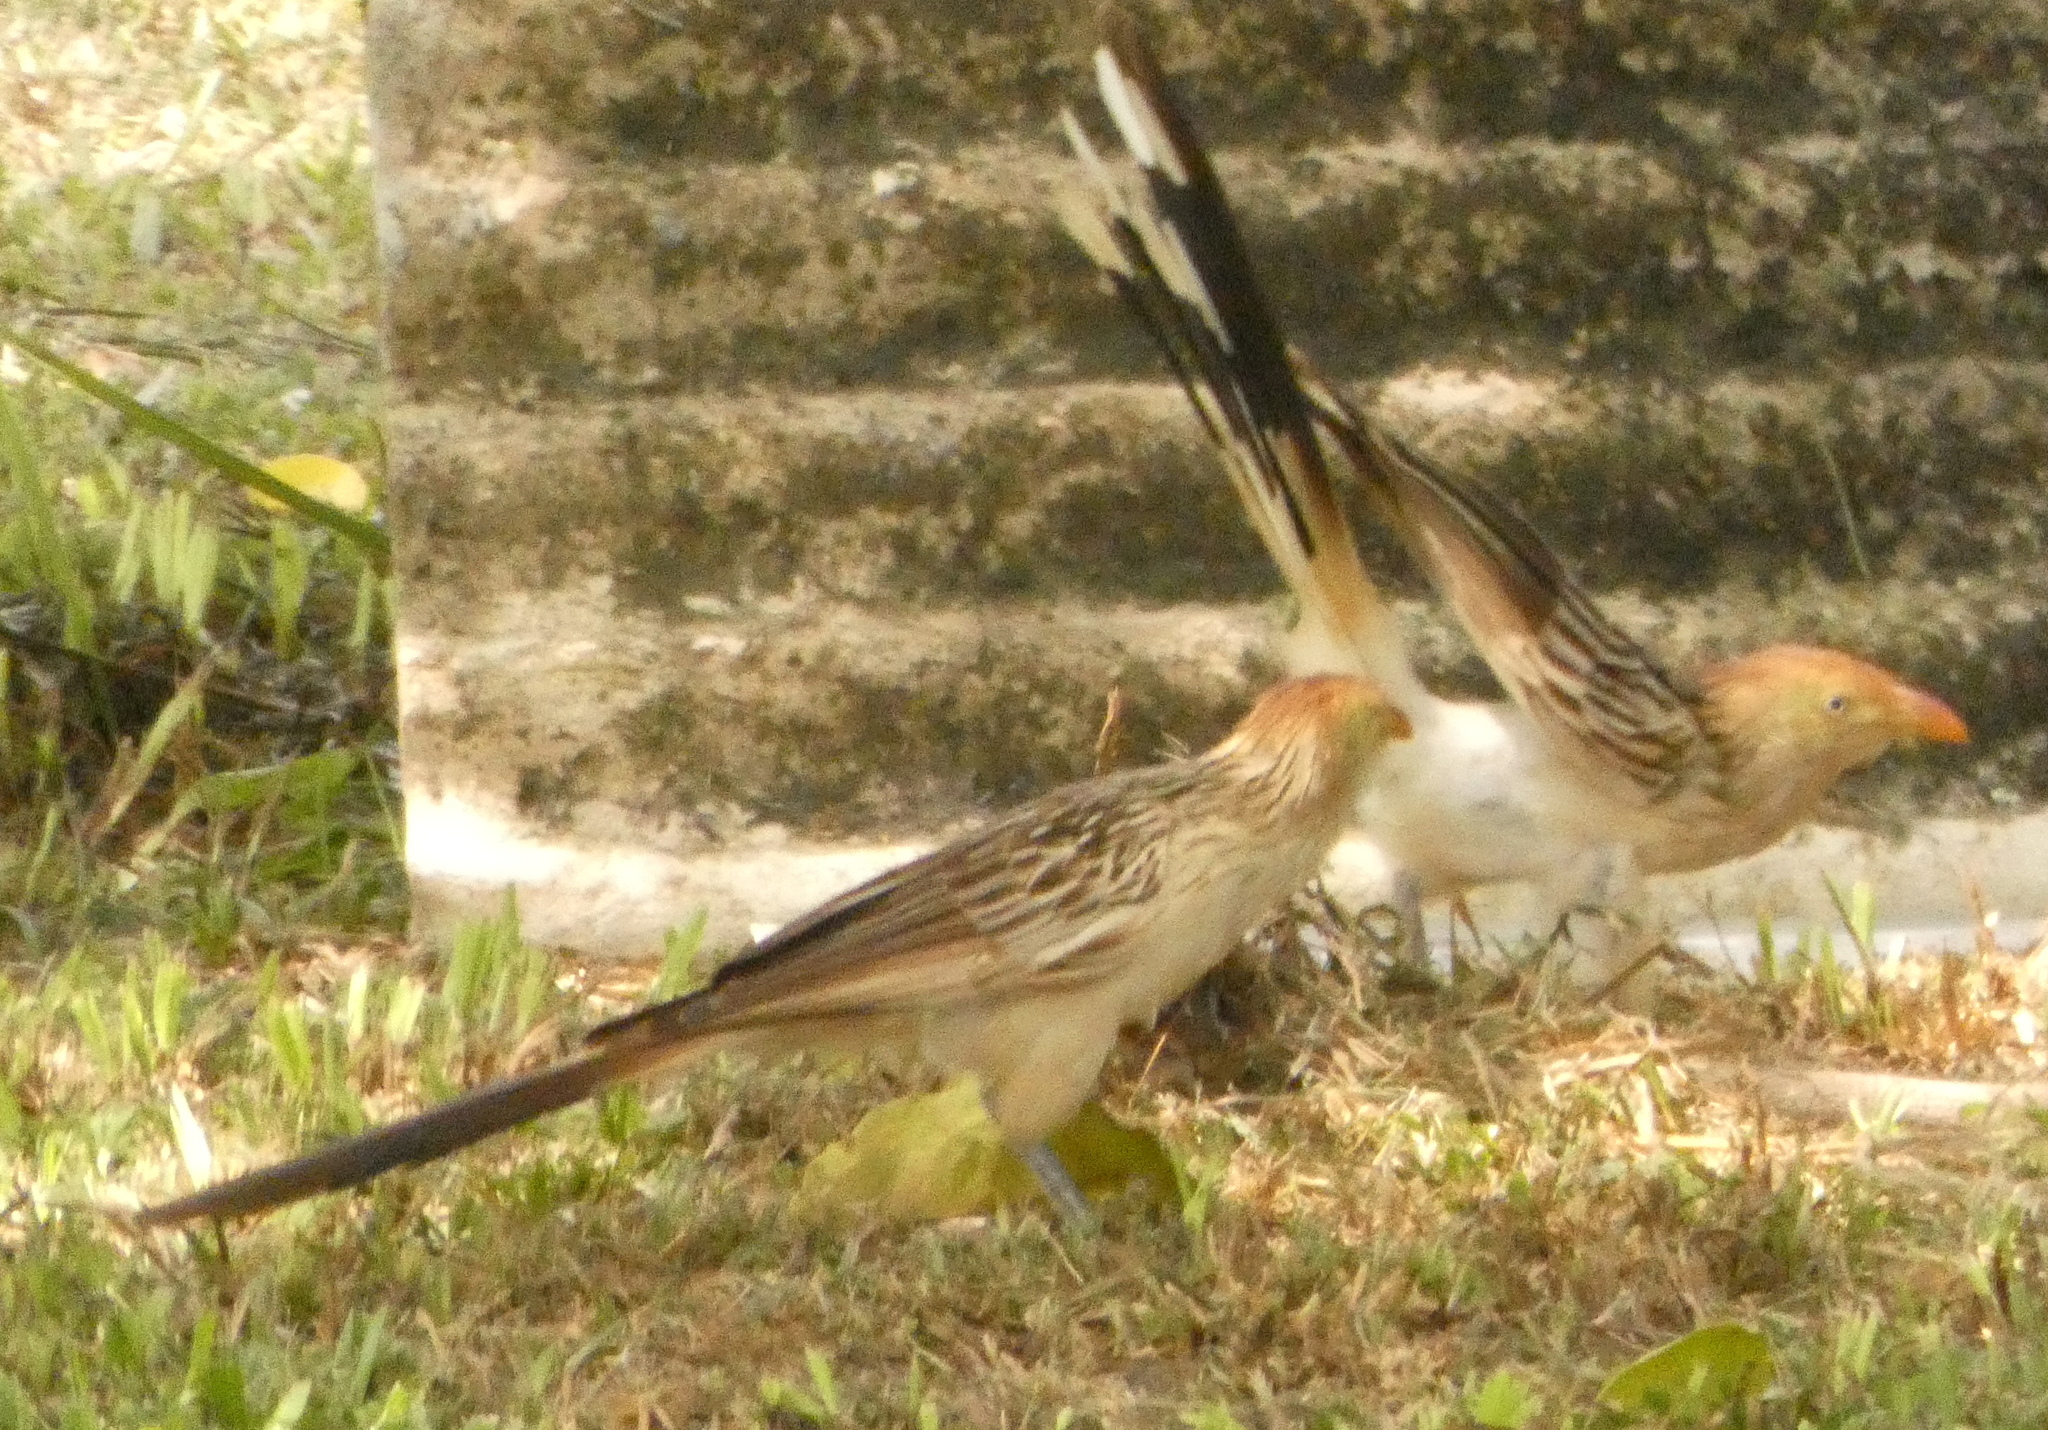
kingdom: Animalia
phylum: Chordata
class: Aves
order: Cuculiformes
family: Cuculidae
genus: Guira
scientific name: Guira guira
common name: Guira cuckoo
